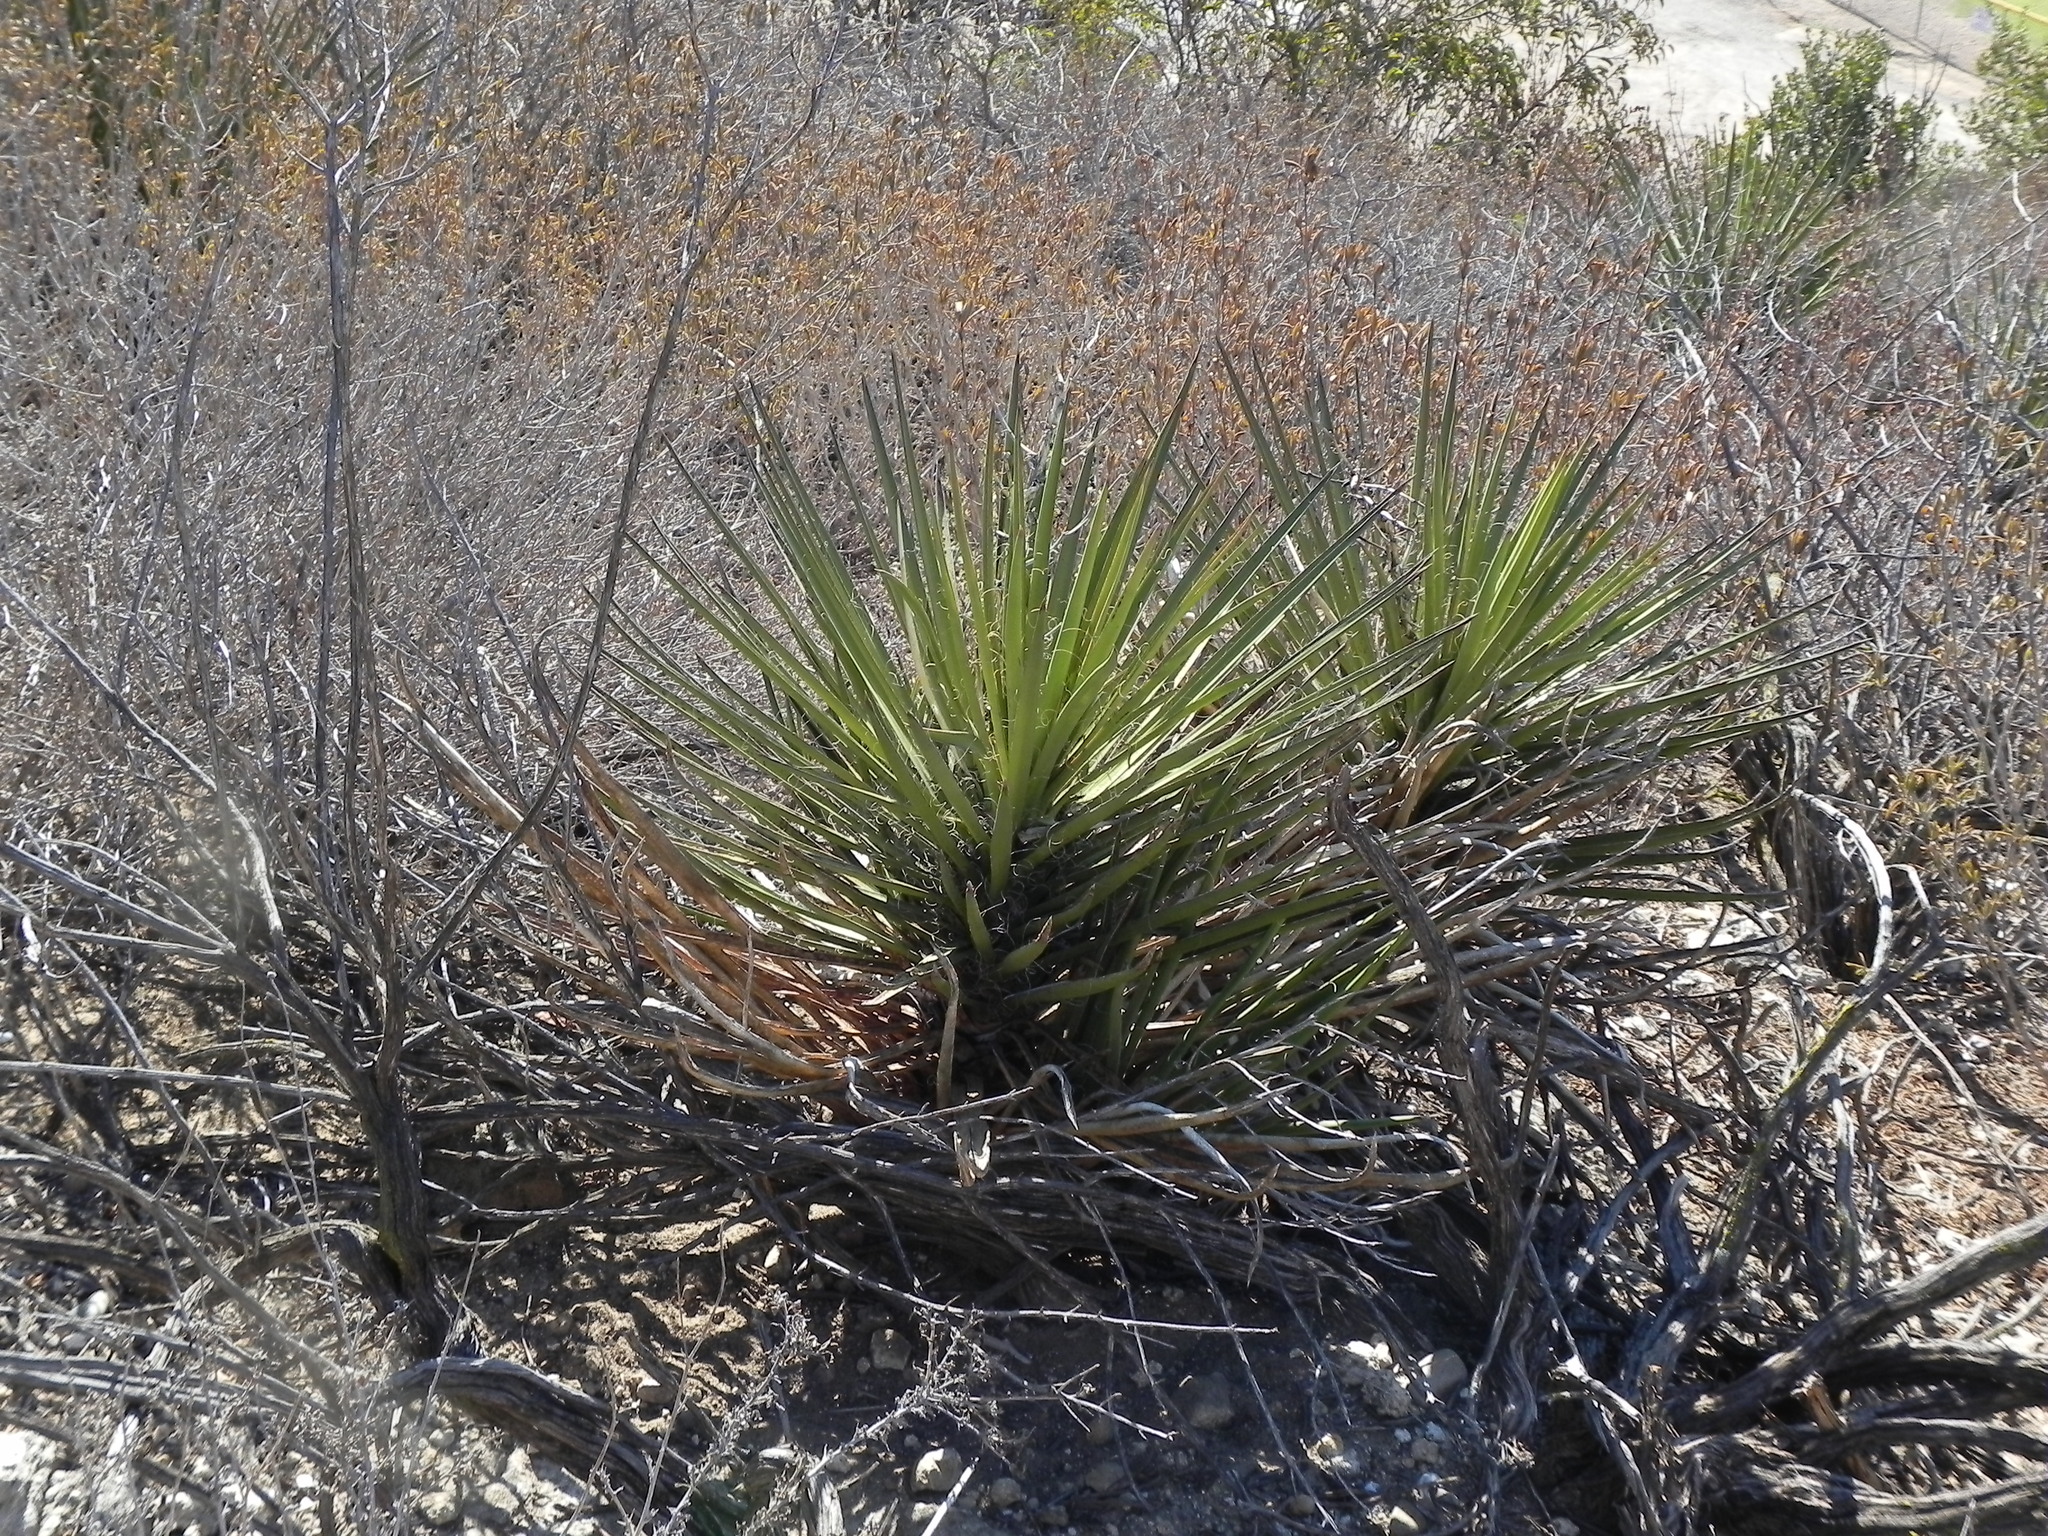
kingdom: Plantae
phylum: Tracheophyta
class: Liliopsida
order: Asparagales
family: Asparagaceae
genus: Yucca
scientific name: Yucca schidigera
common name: Mojave yucca
